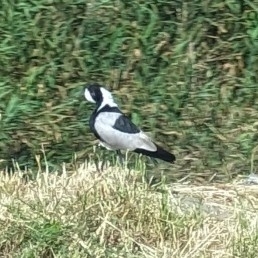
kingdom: Animalia
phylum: Chordata
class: Aves
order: Charadriiformes
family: Charadriidae
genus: Vanellus
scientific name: Vanellus armatus
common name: Blacksmith lapwing
